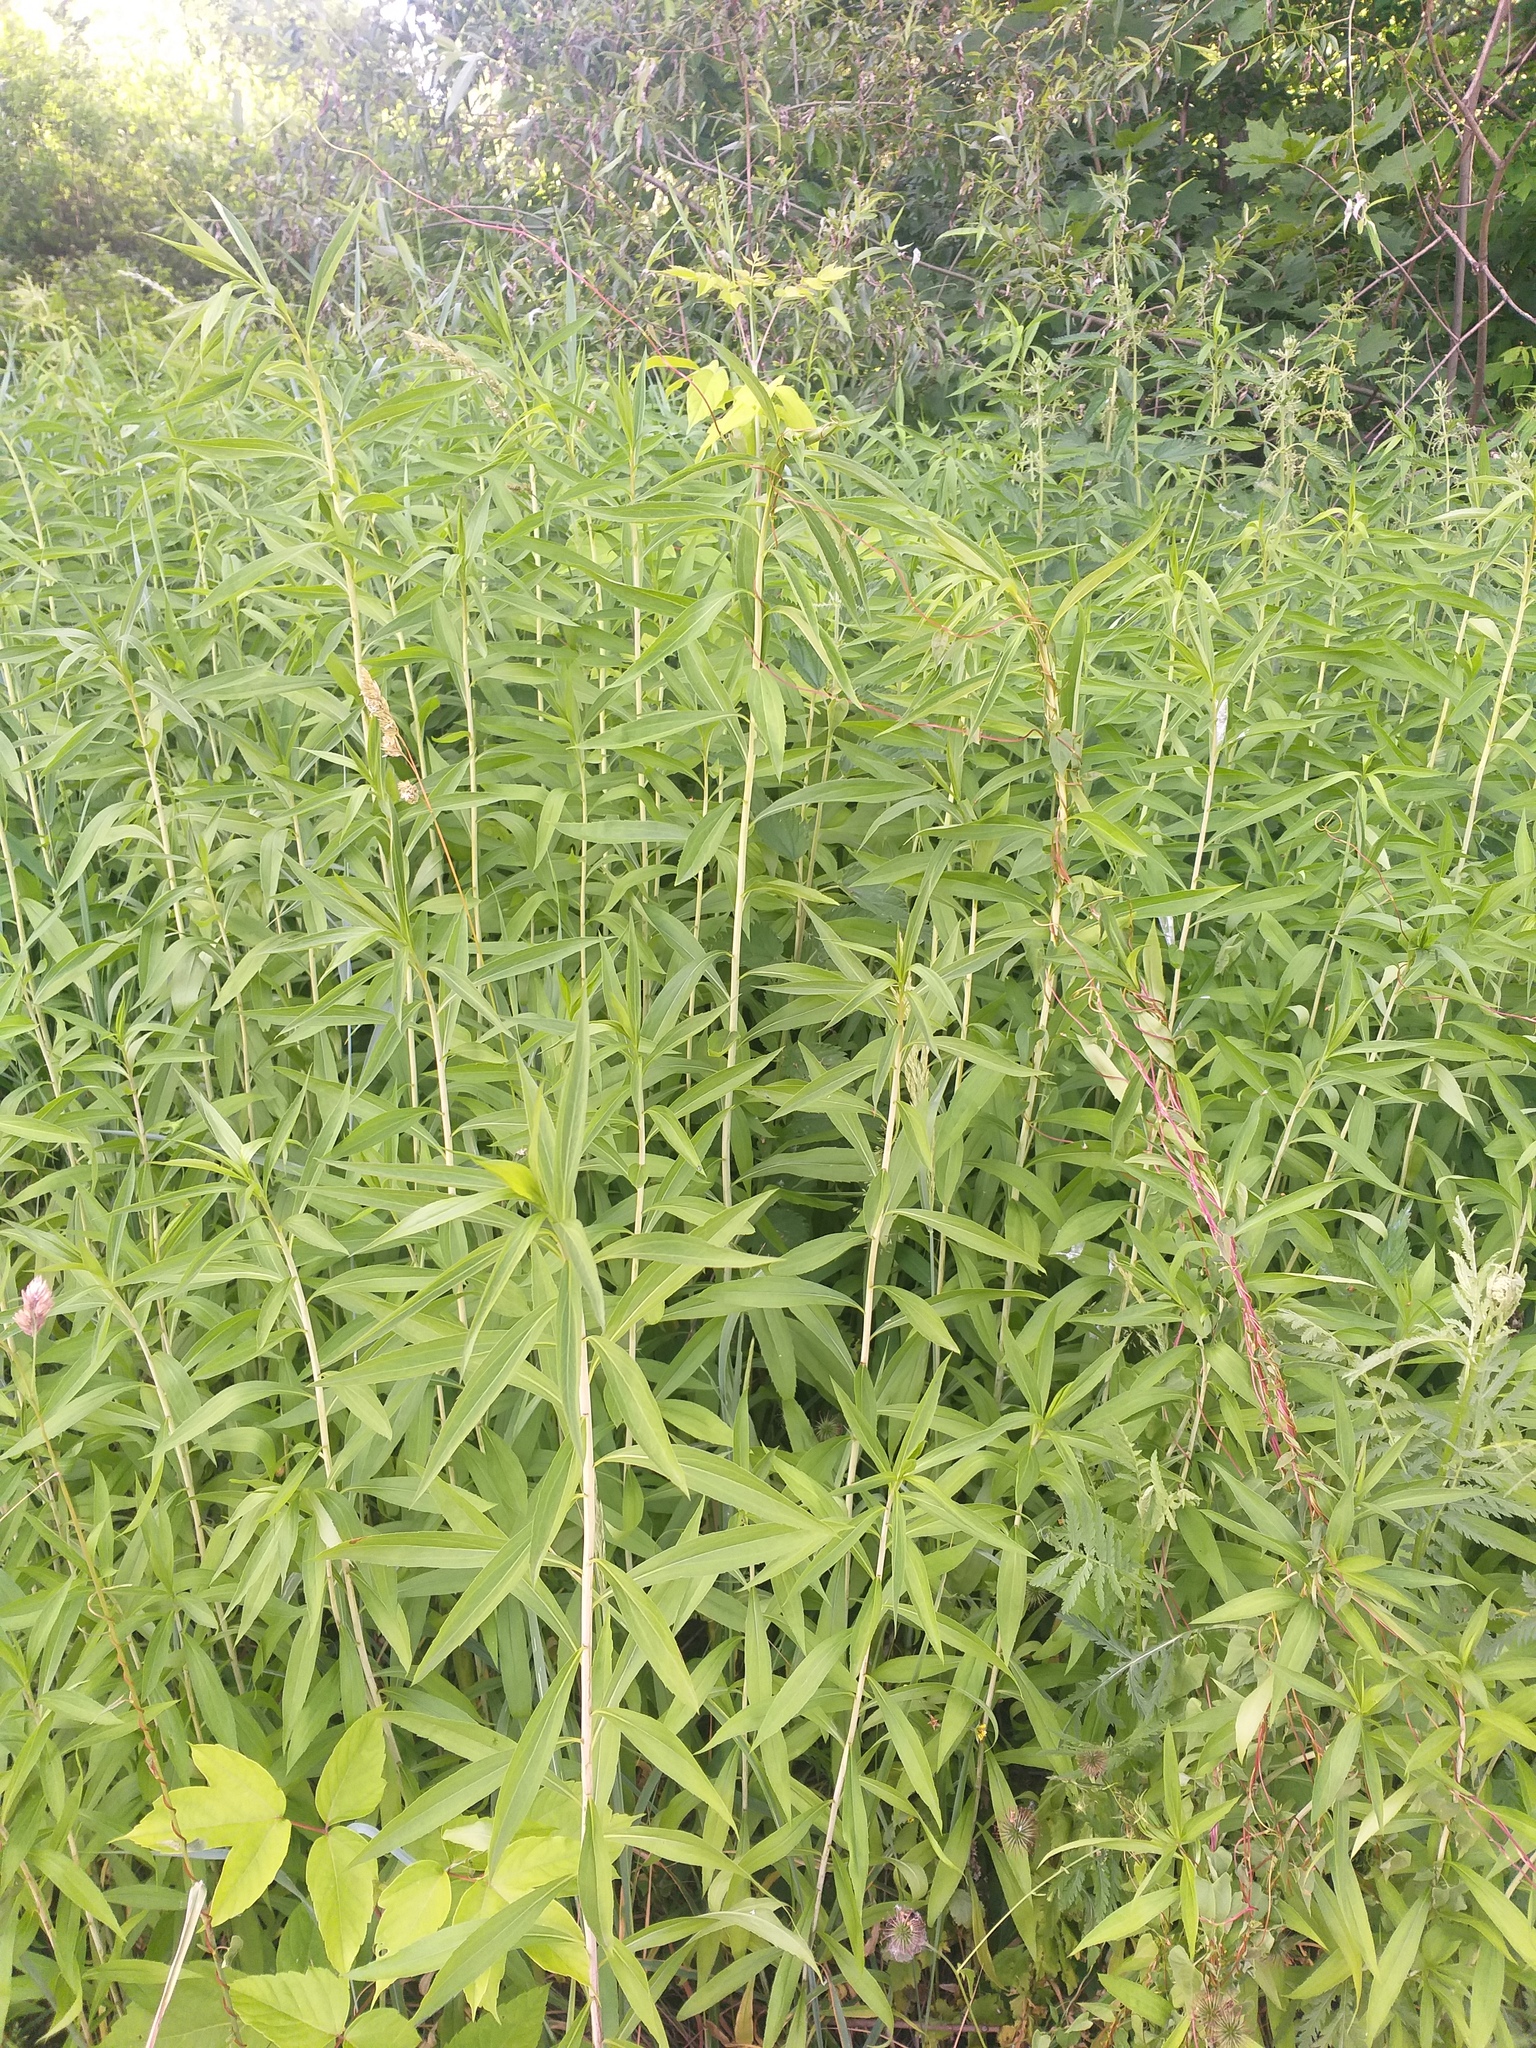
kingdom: Plantae
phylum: Tracheophyta
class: Magnoliopsida
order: Asterales
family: Asteraceae
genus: Solidago
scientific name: Solidago gigantea
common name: Giant goldenrod
